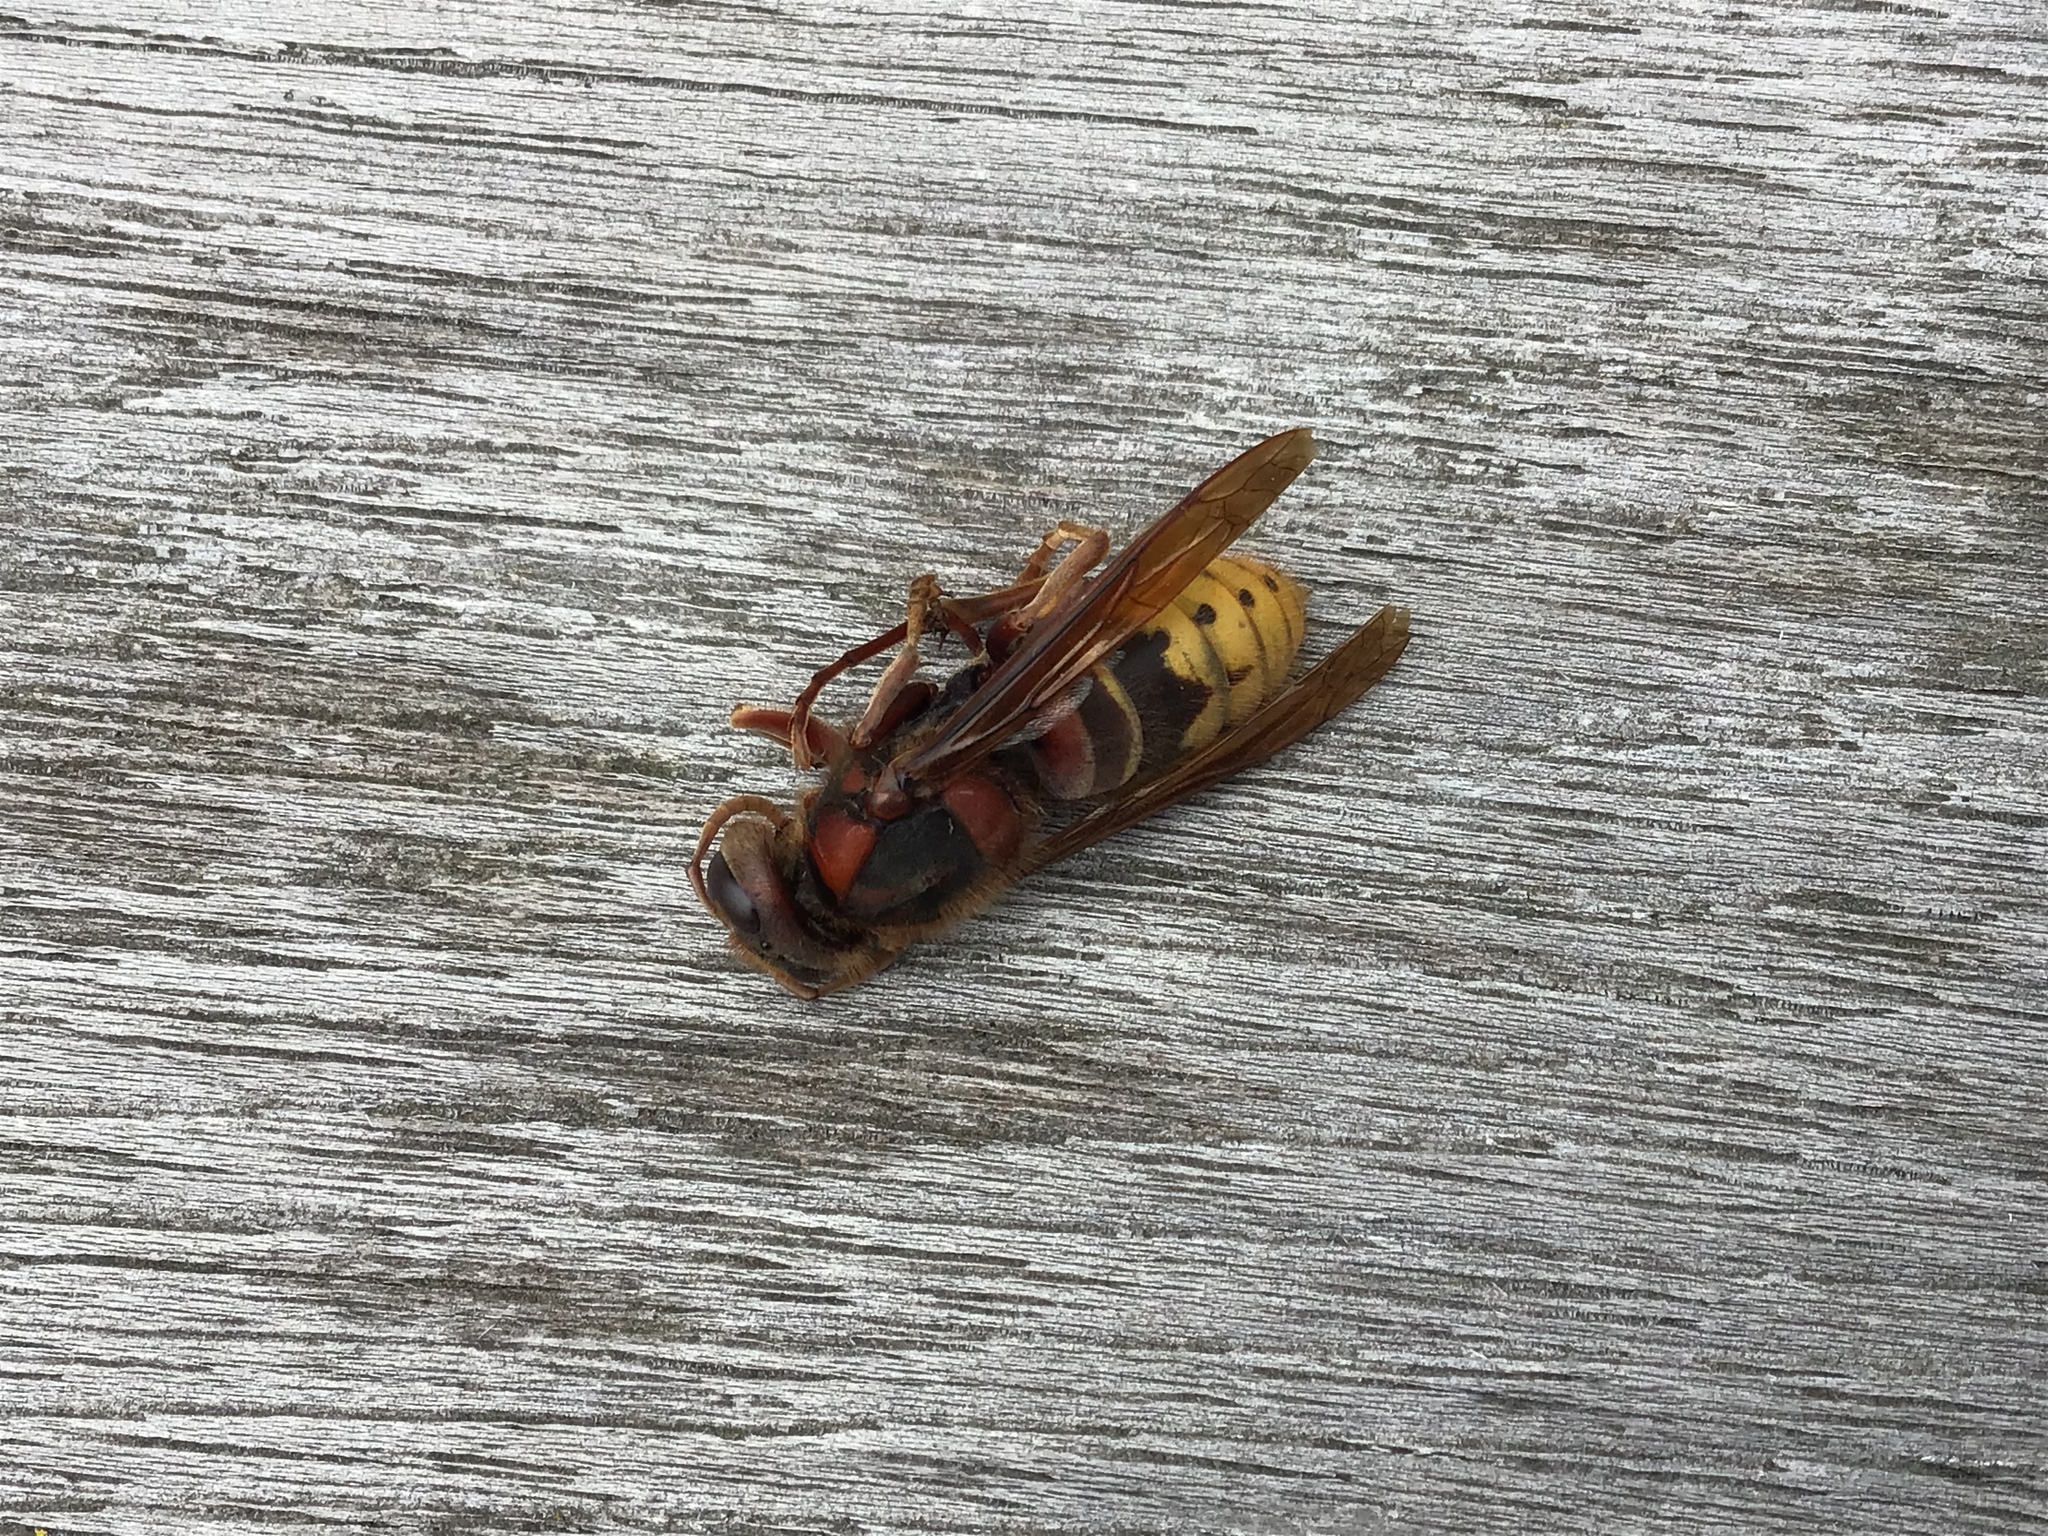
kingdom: Animalia
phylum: Arthropoda
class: Insecta
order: Hymenoptera
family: Vespidae
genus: Vespa
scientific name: Vespa crabro
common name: Hornet
